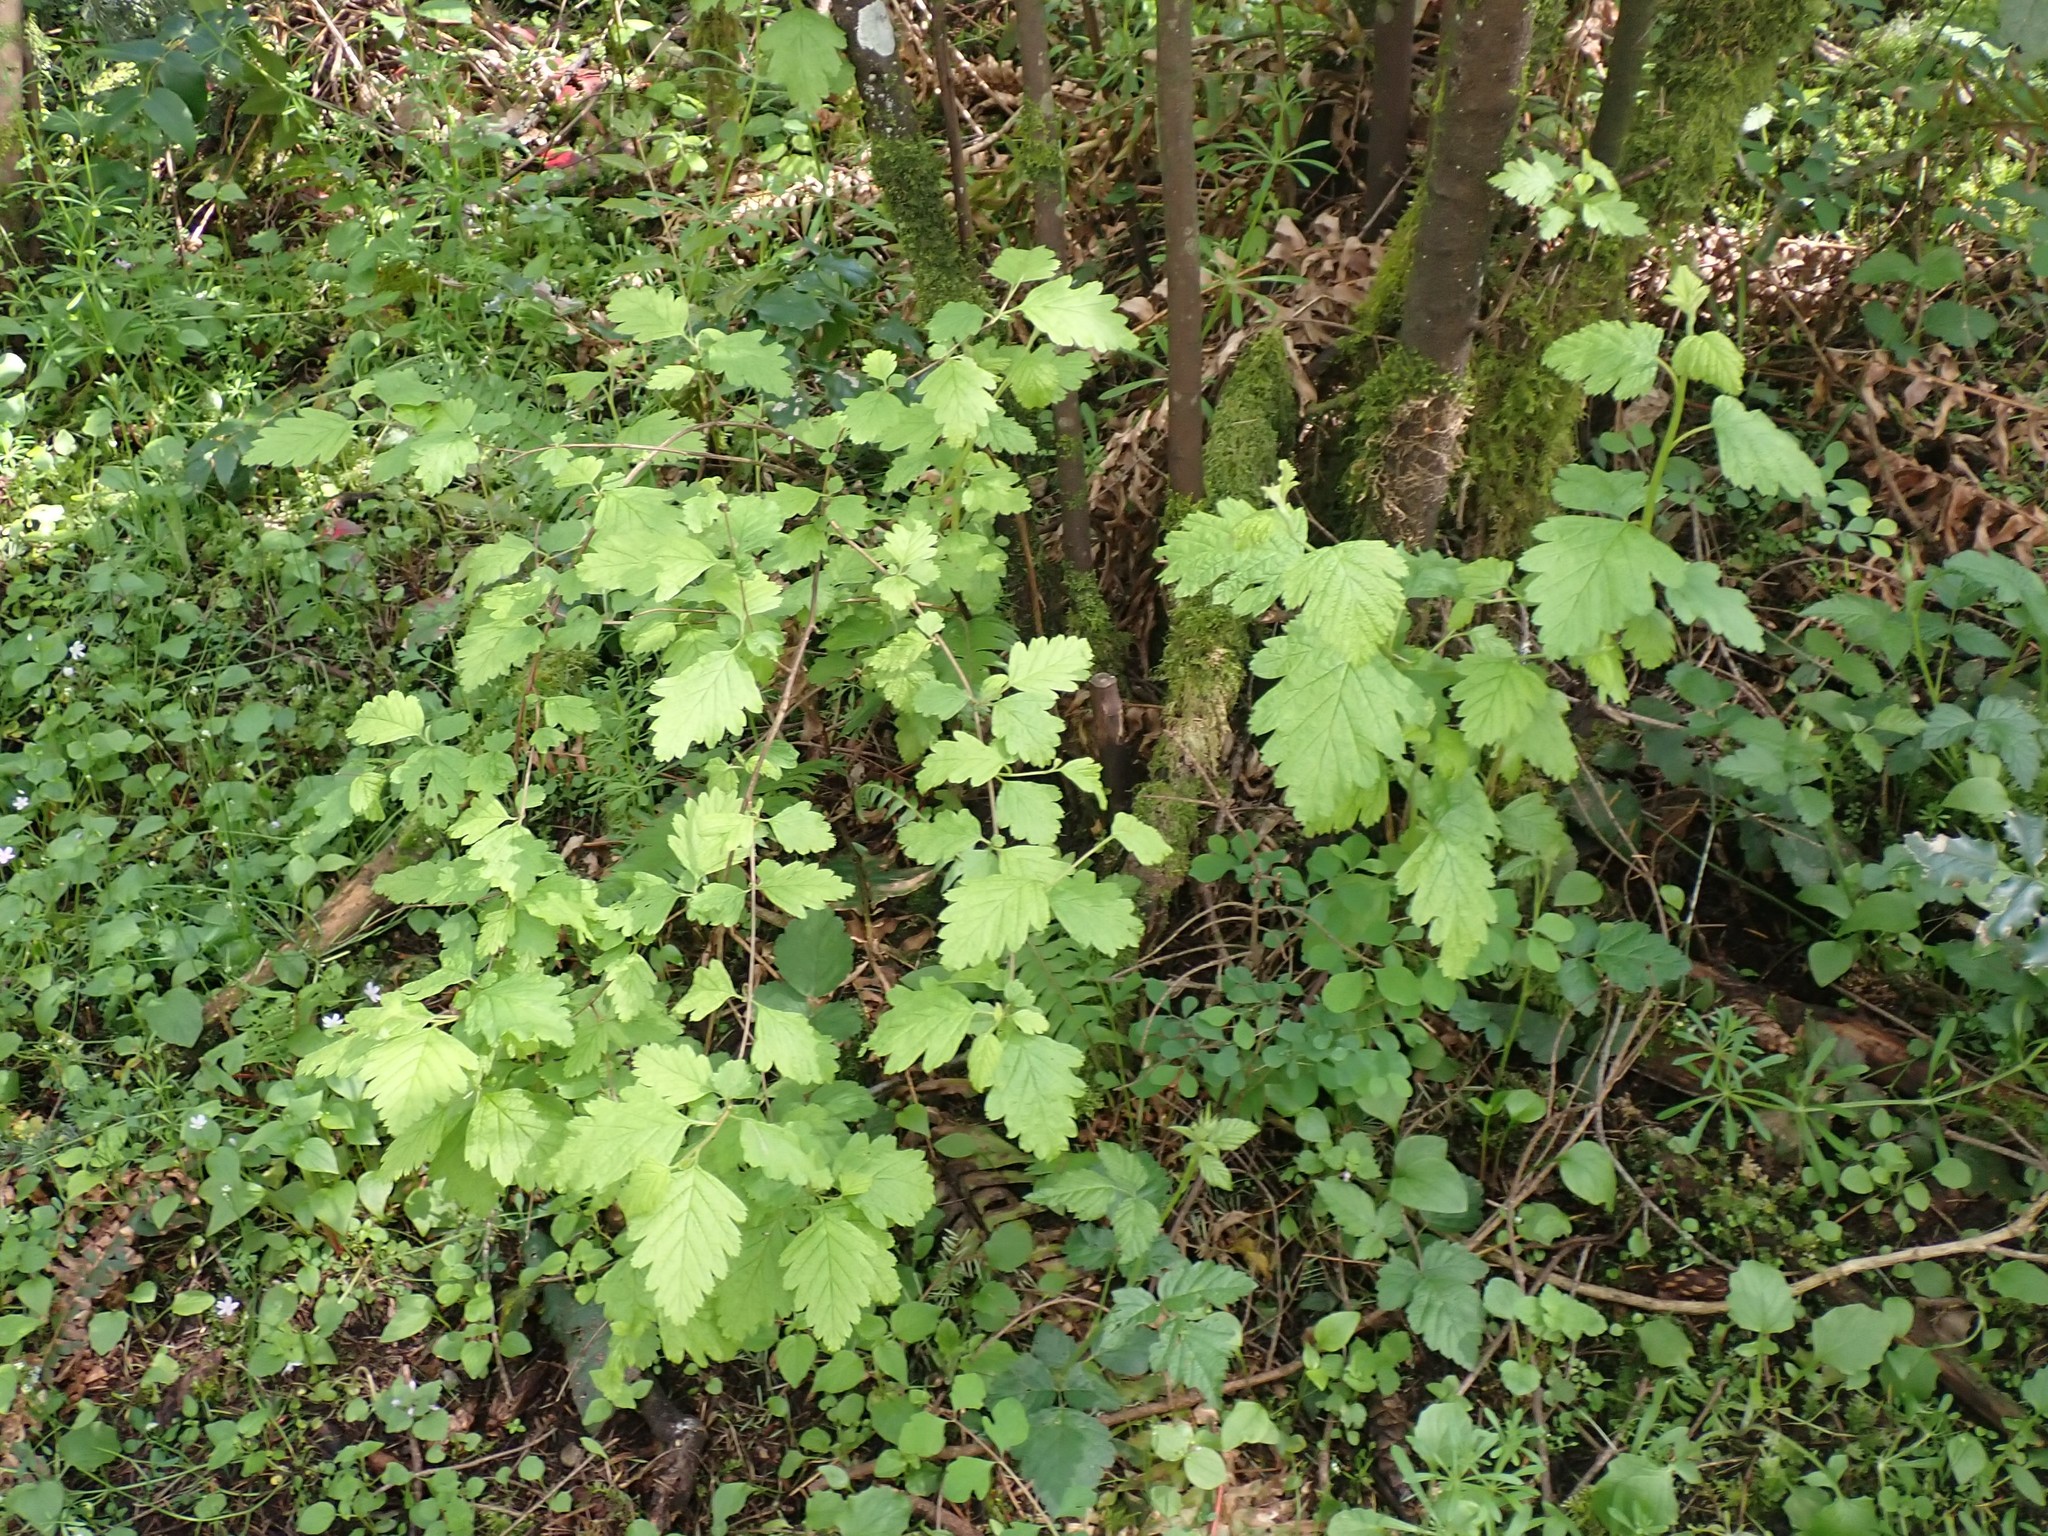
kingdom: Plantae
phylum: Tracheophyta
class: Magnoliopsida
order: Rosales
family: Rosaceae
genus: Holodiscus
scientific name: Holodiscus discolor
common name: Oceanspray
